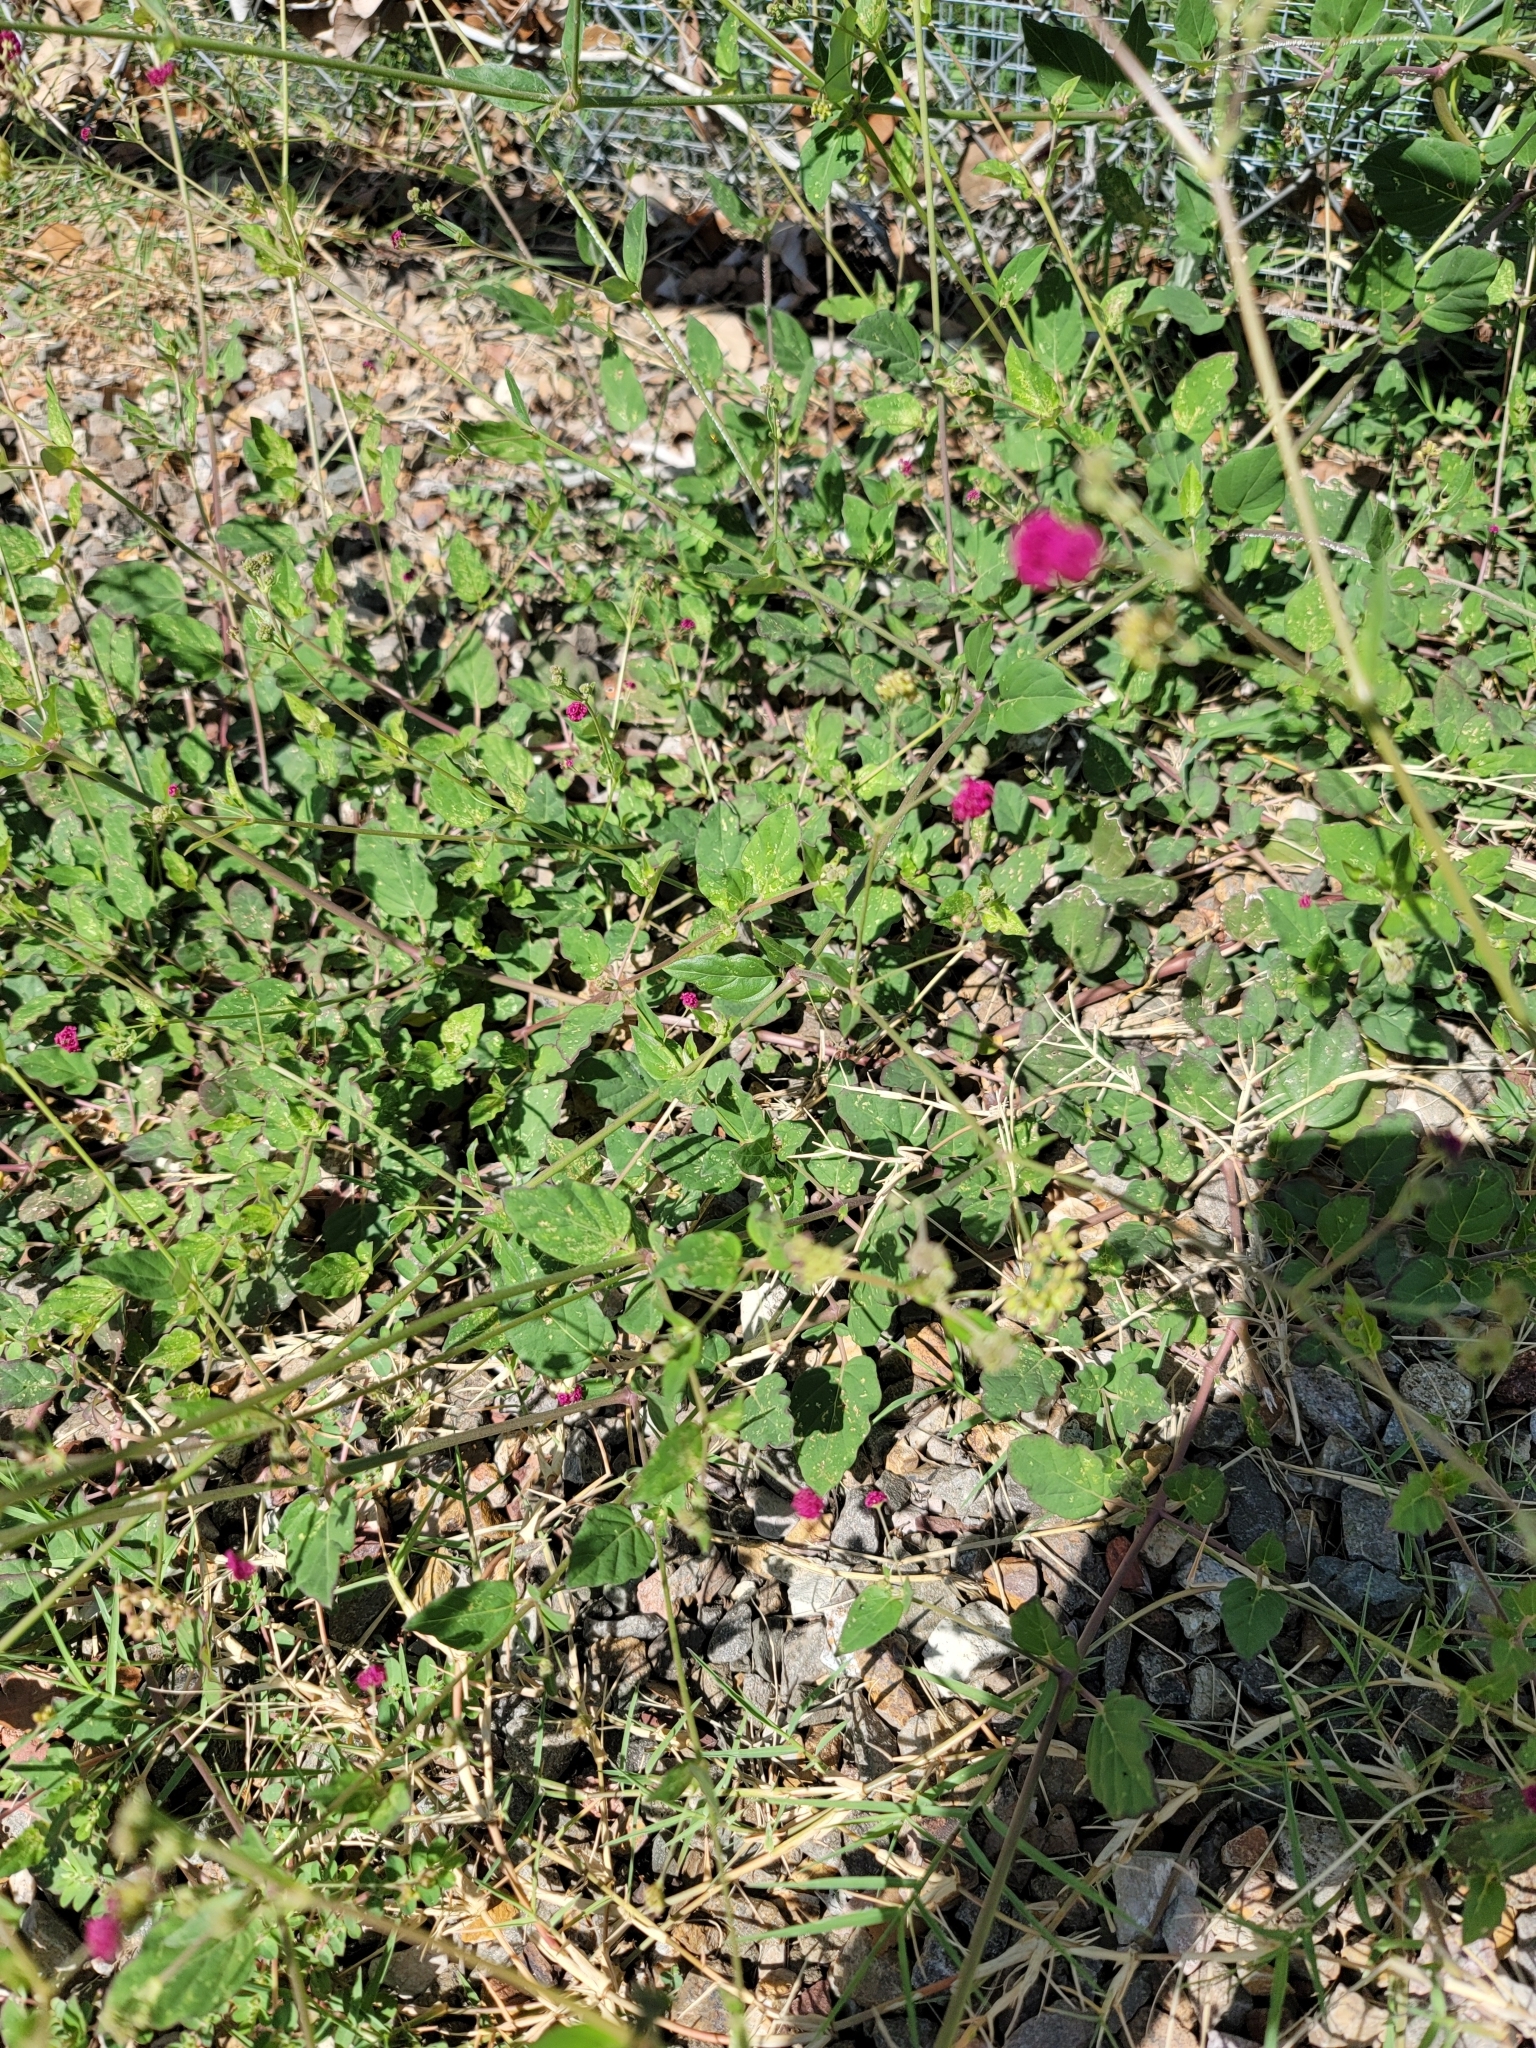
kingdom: Plantae
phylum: Tracheophyta
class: Magnoliopsida
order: Caryophyllales
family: Nyctaginaceae
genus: Boerhavia
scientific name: Boerhavia coccinea
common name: Scarlet spiderling
